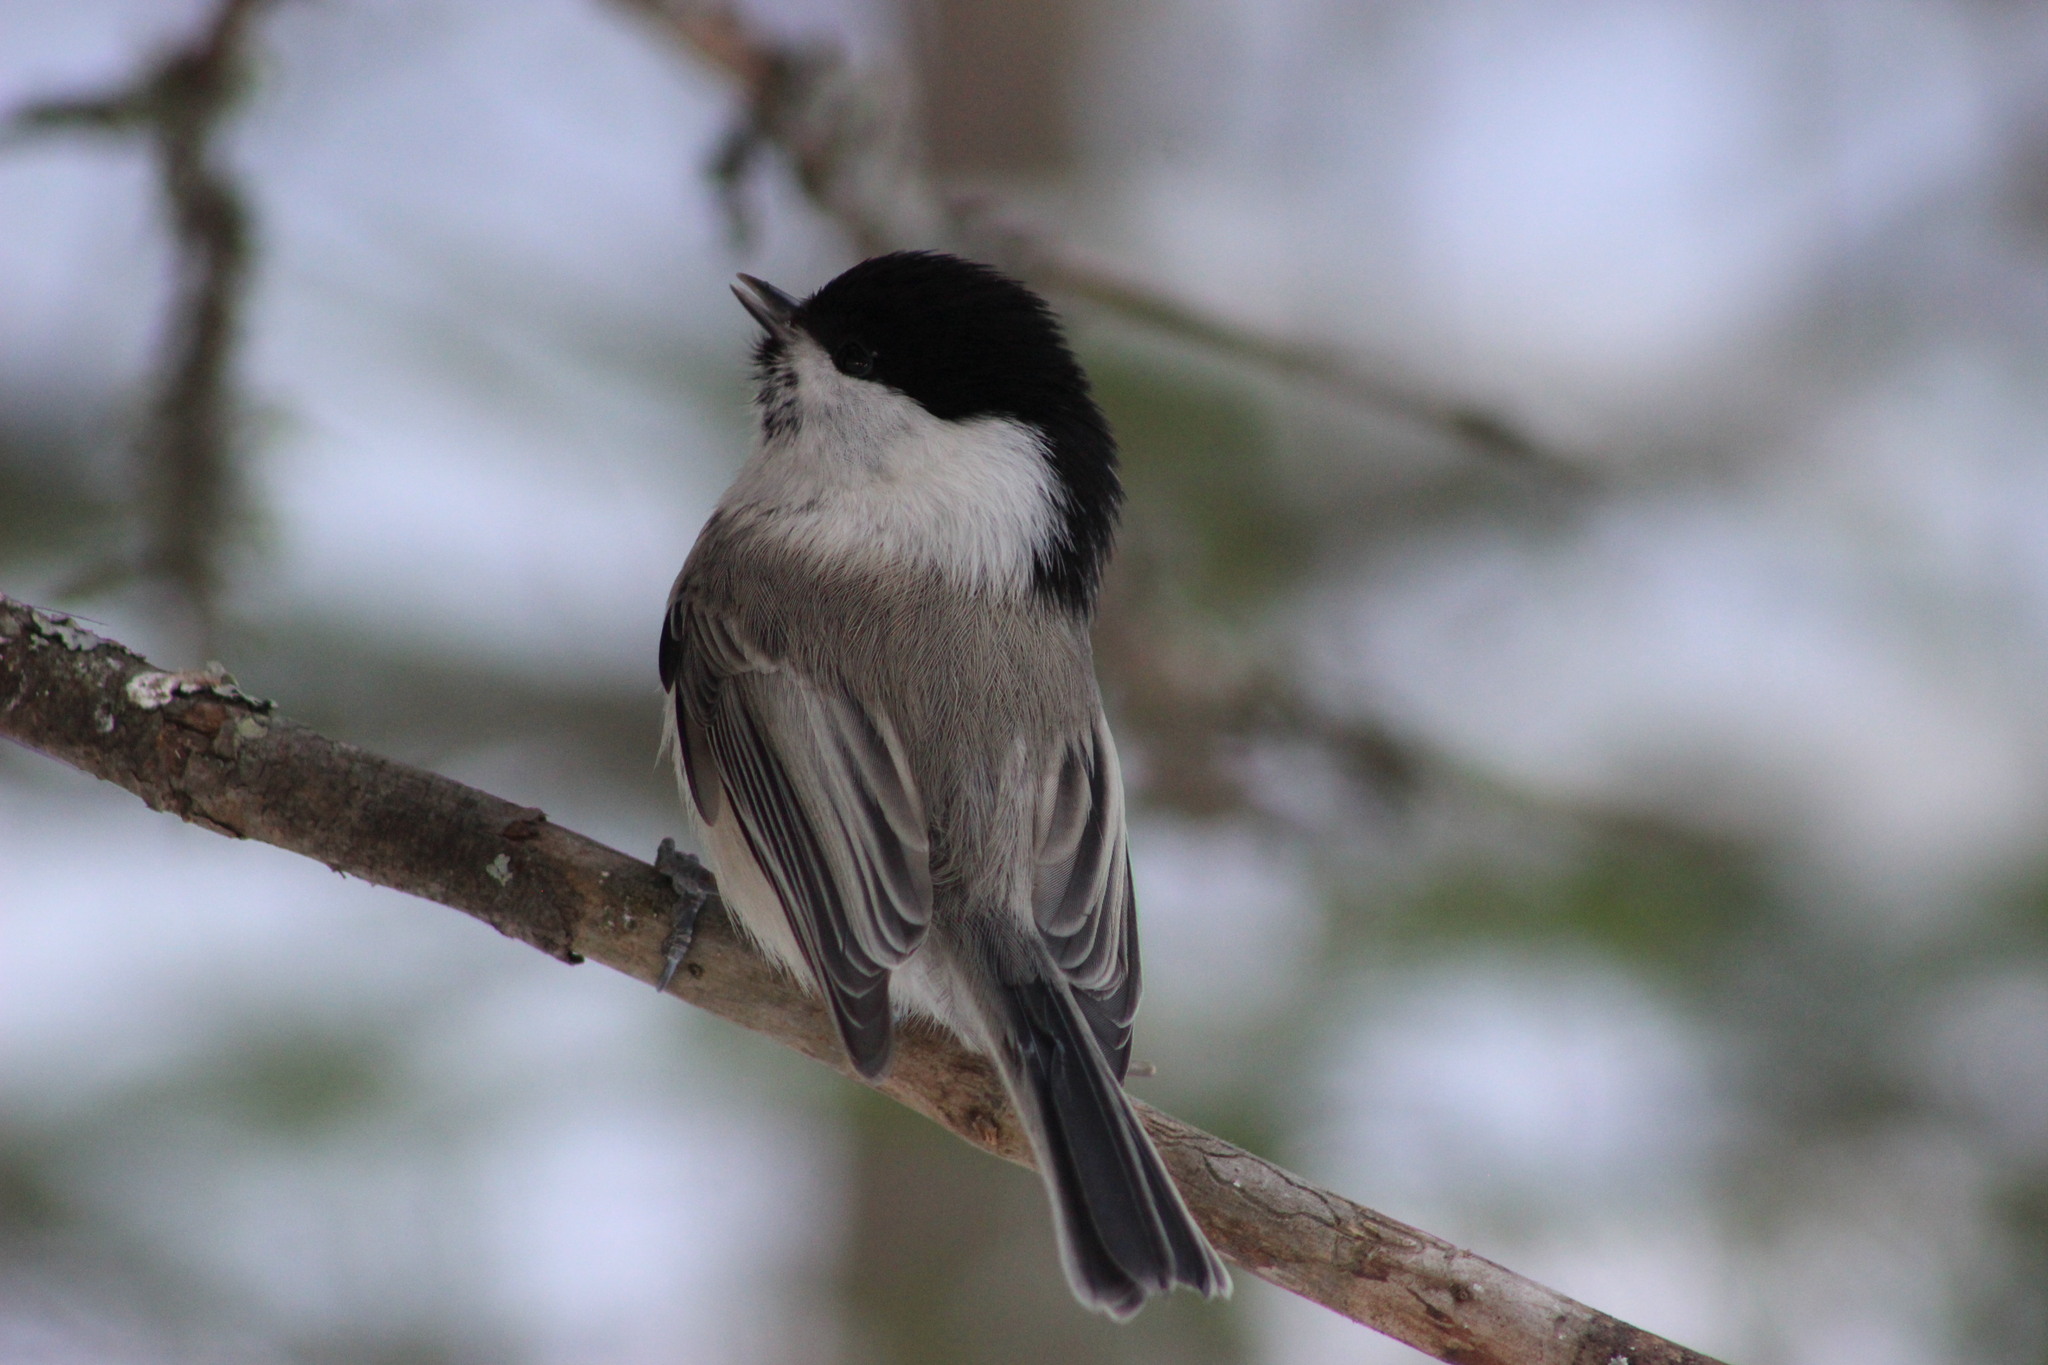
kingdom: Animalia
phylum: Chordata
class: Aves
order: Passeriformes
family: Paridae
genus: Poecile
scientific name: Poecile montanus
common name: Willow tit
